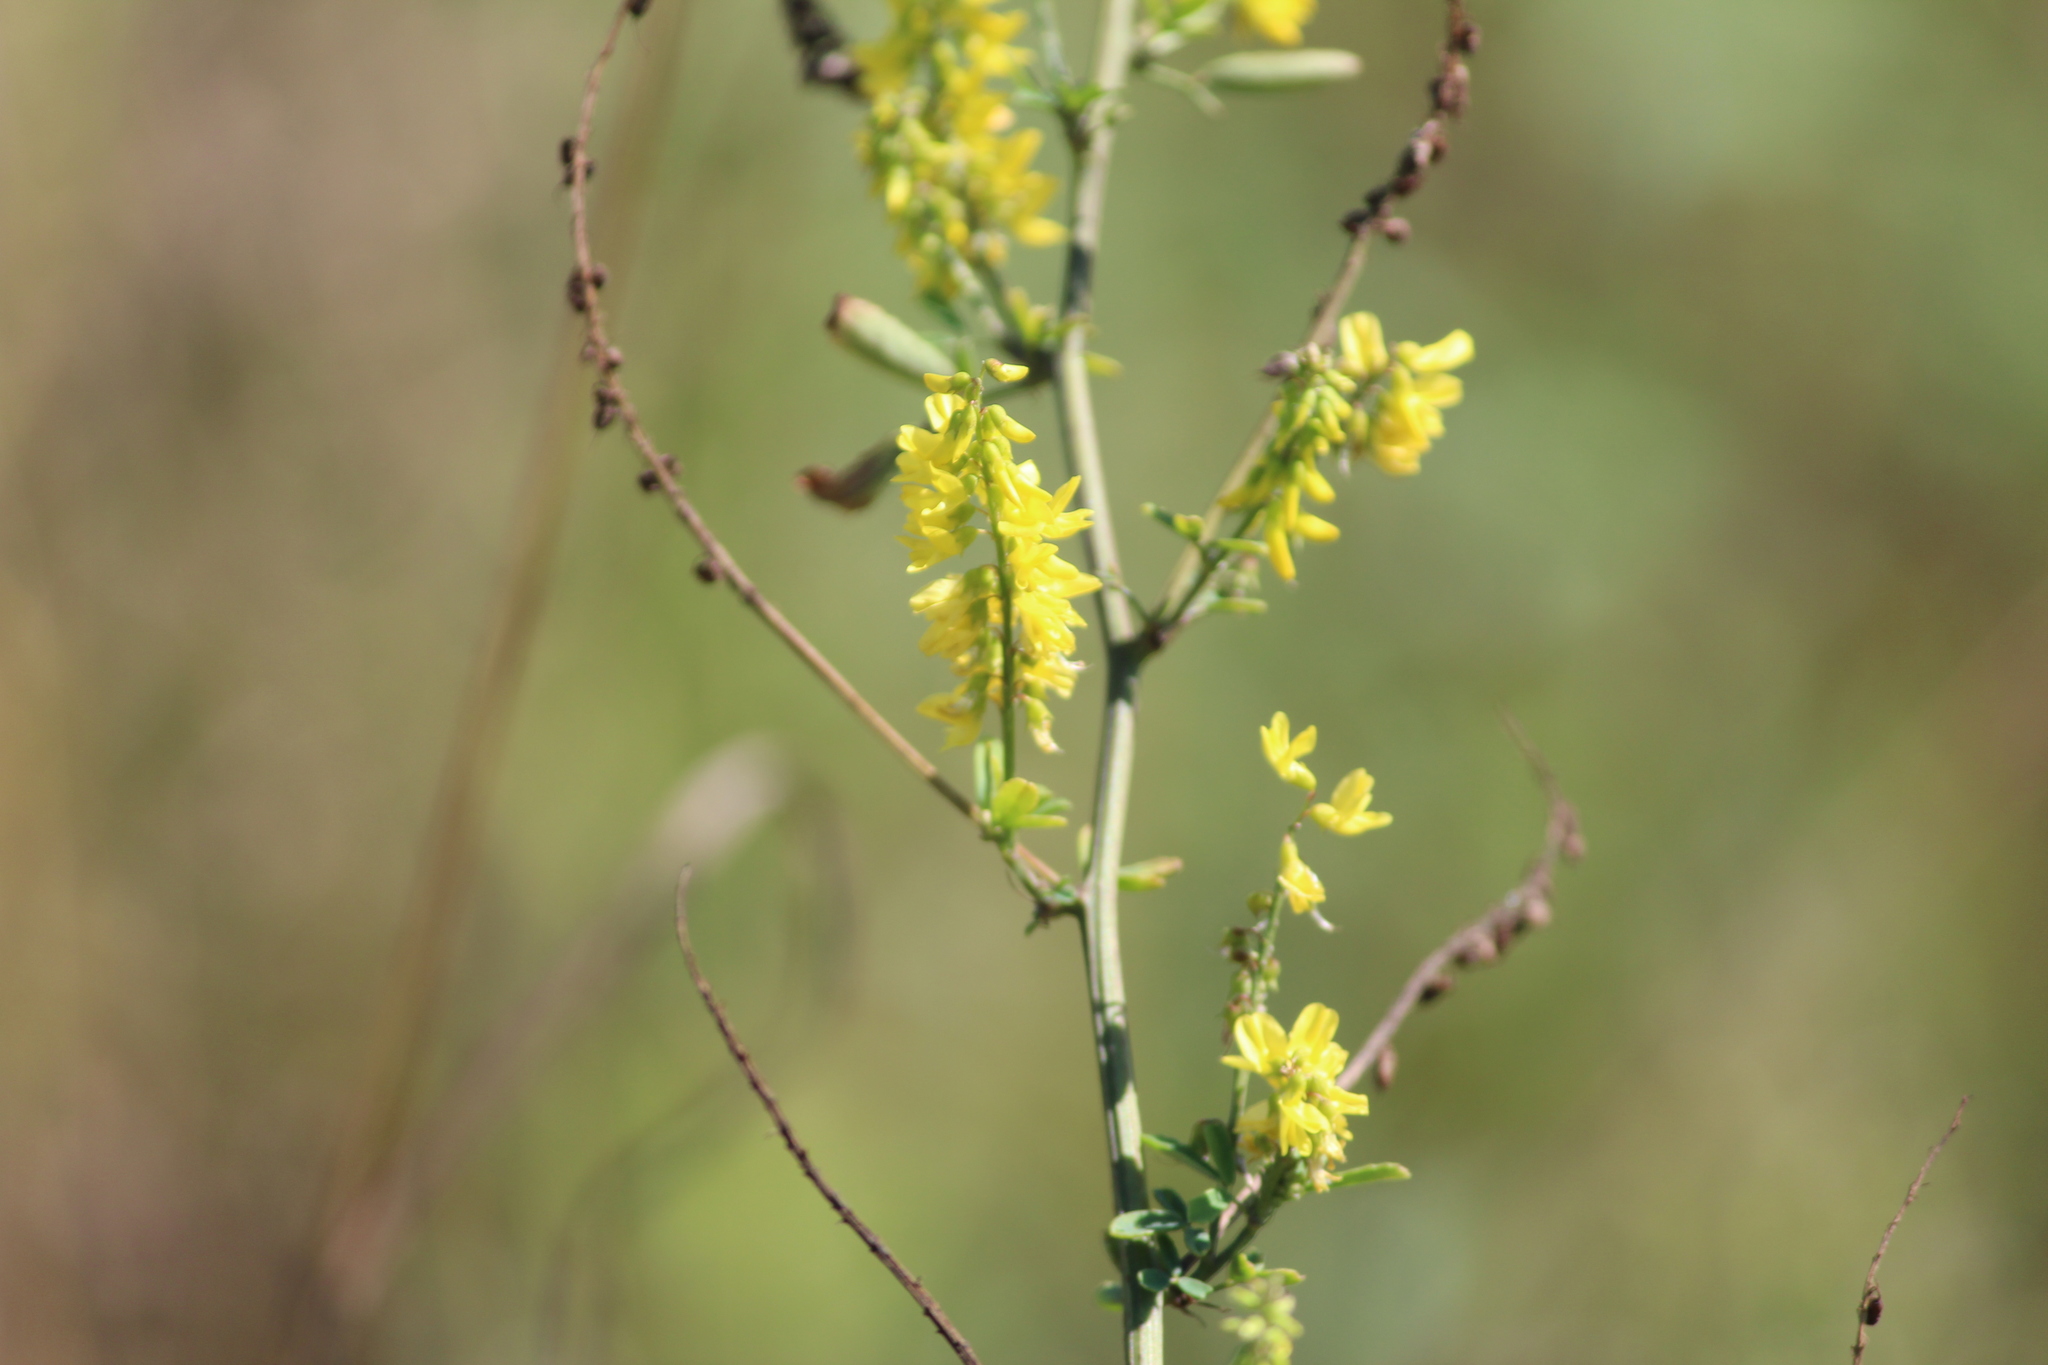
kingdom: Plantae
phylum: Tracheophyta
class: Magnoliopsida
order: Fabales
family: Fabaceae
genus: Melilotus
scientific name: Melilotus officinalis
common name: Sweetclover
